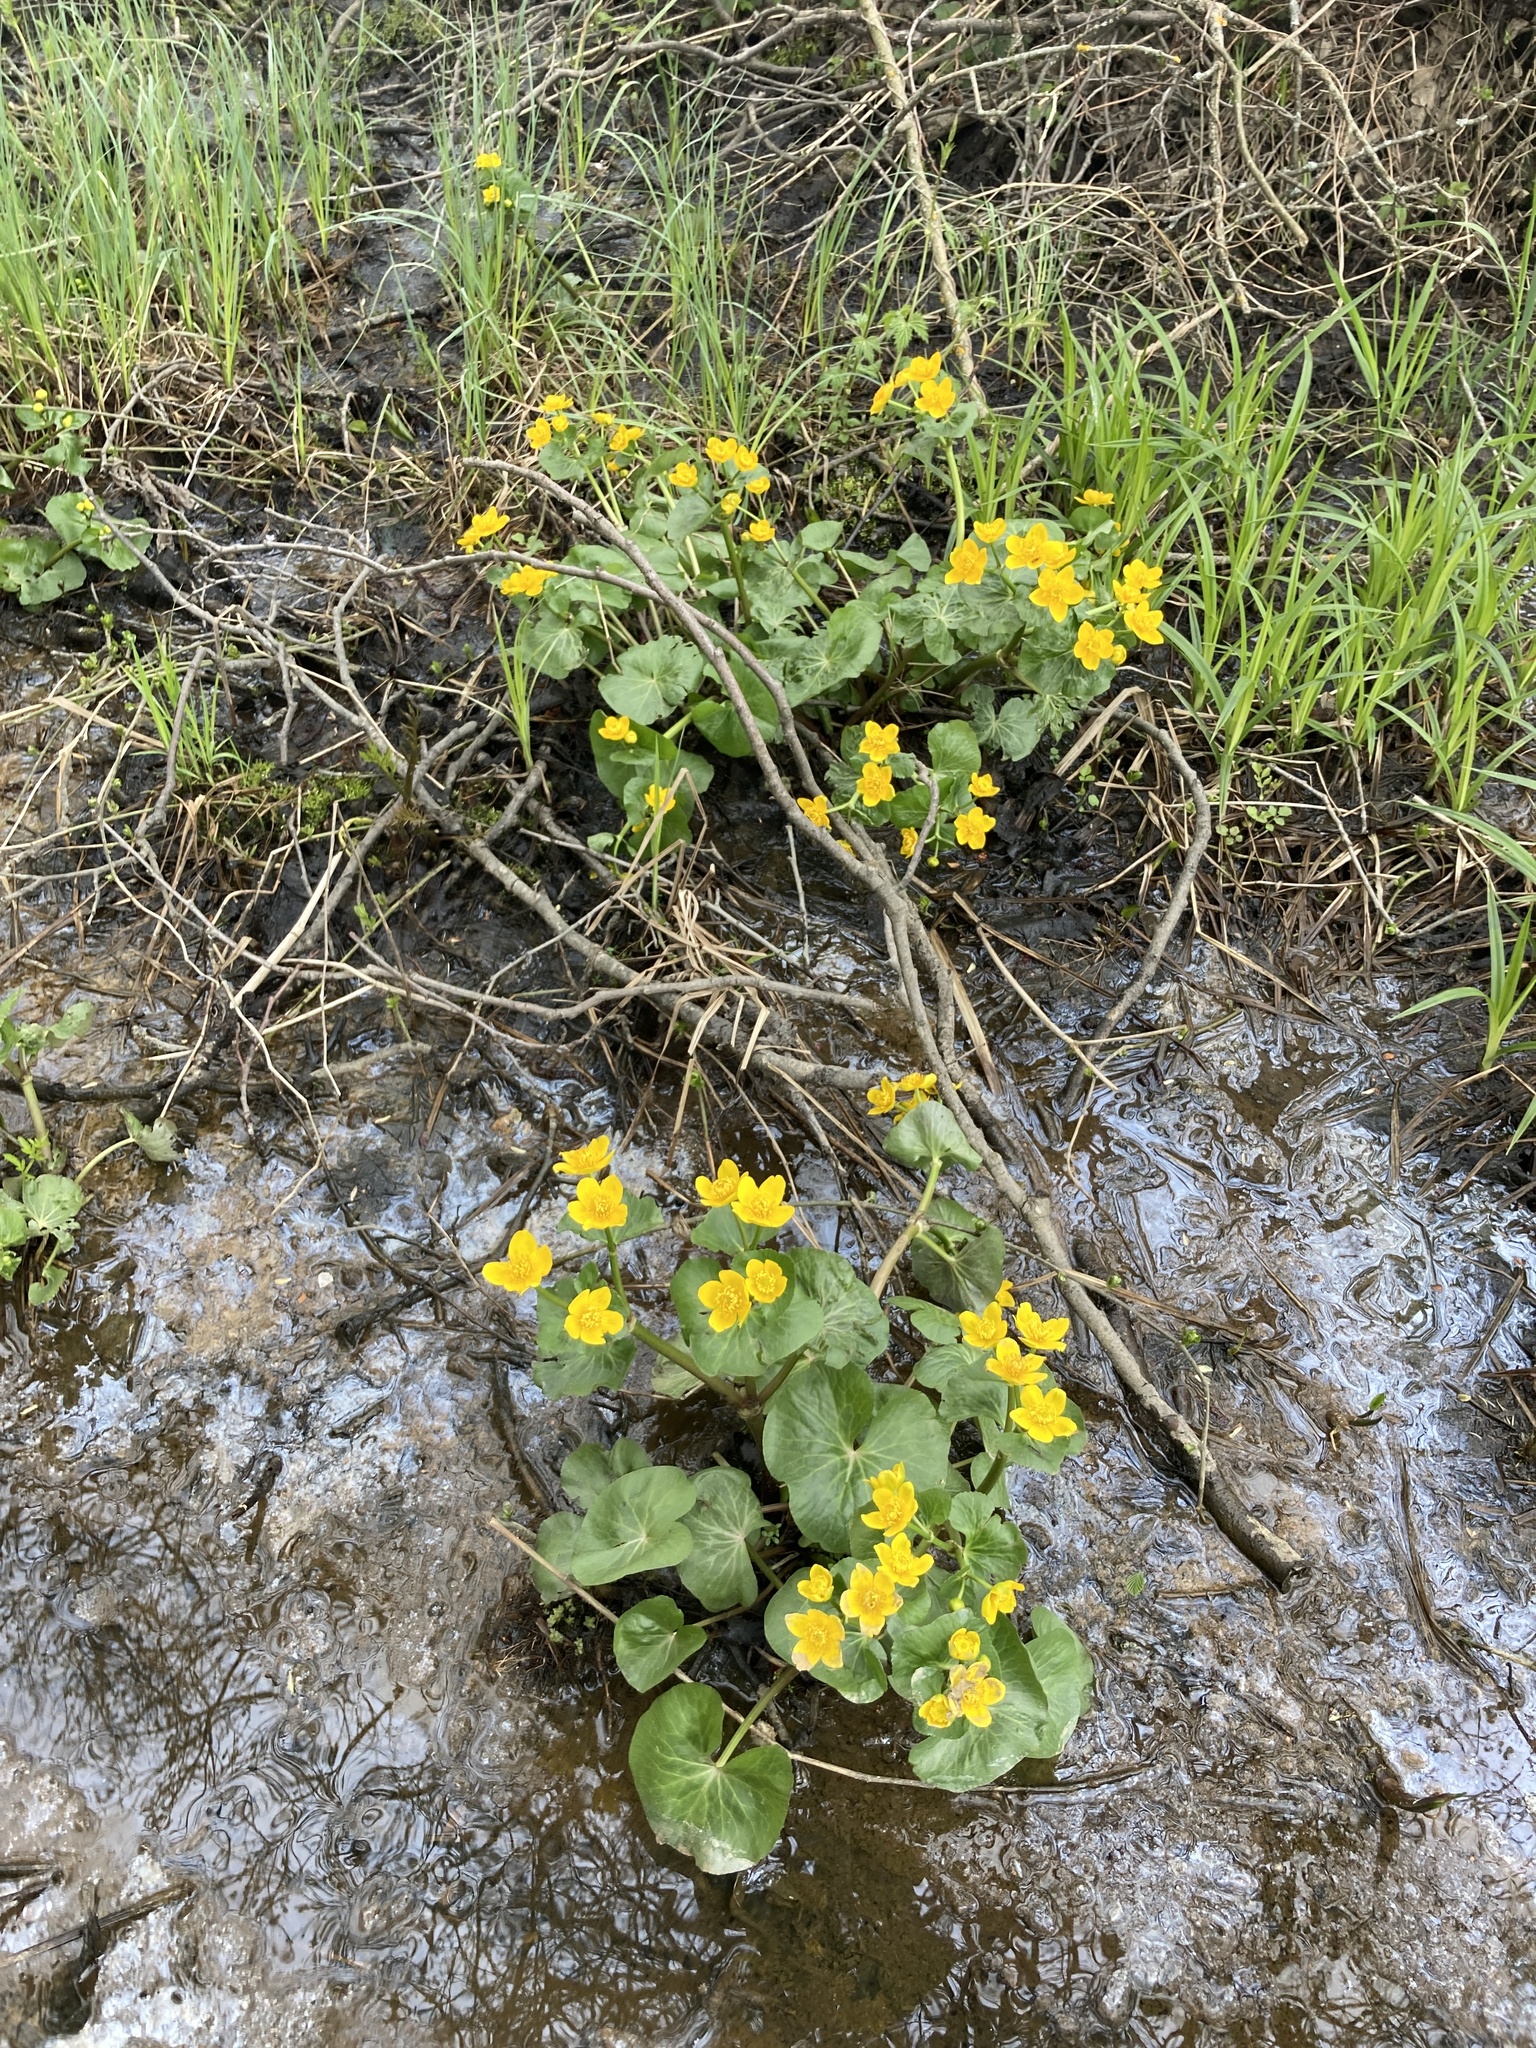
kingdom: Plantae
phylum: Tracheophyta
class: Magnoliopsida
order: Ranunculales
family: Ranunculaceae
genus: Caltha
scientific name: Caltha palustris
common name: Marsh marigold
